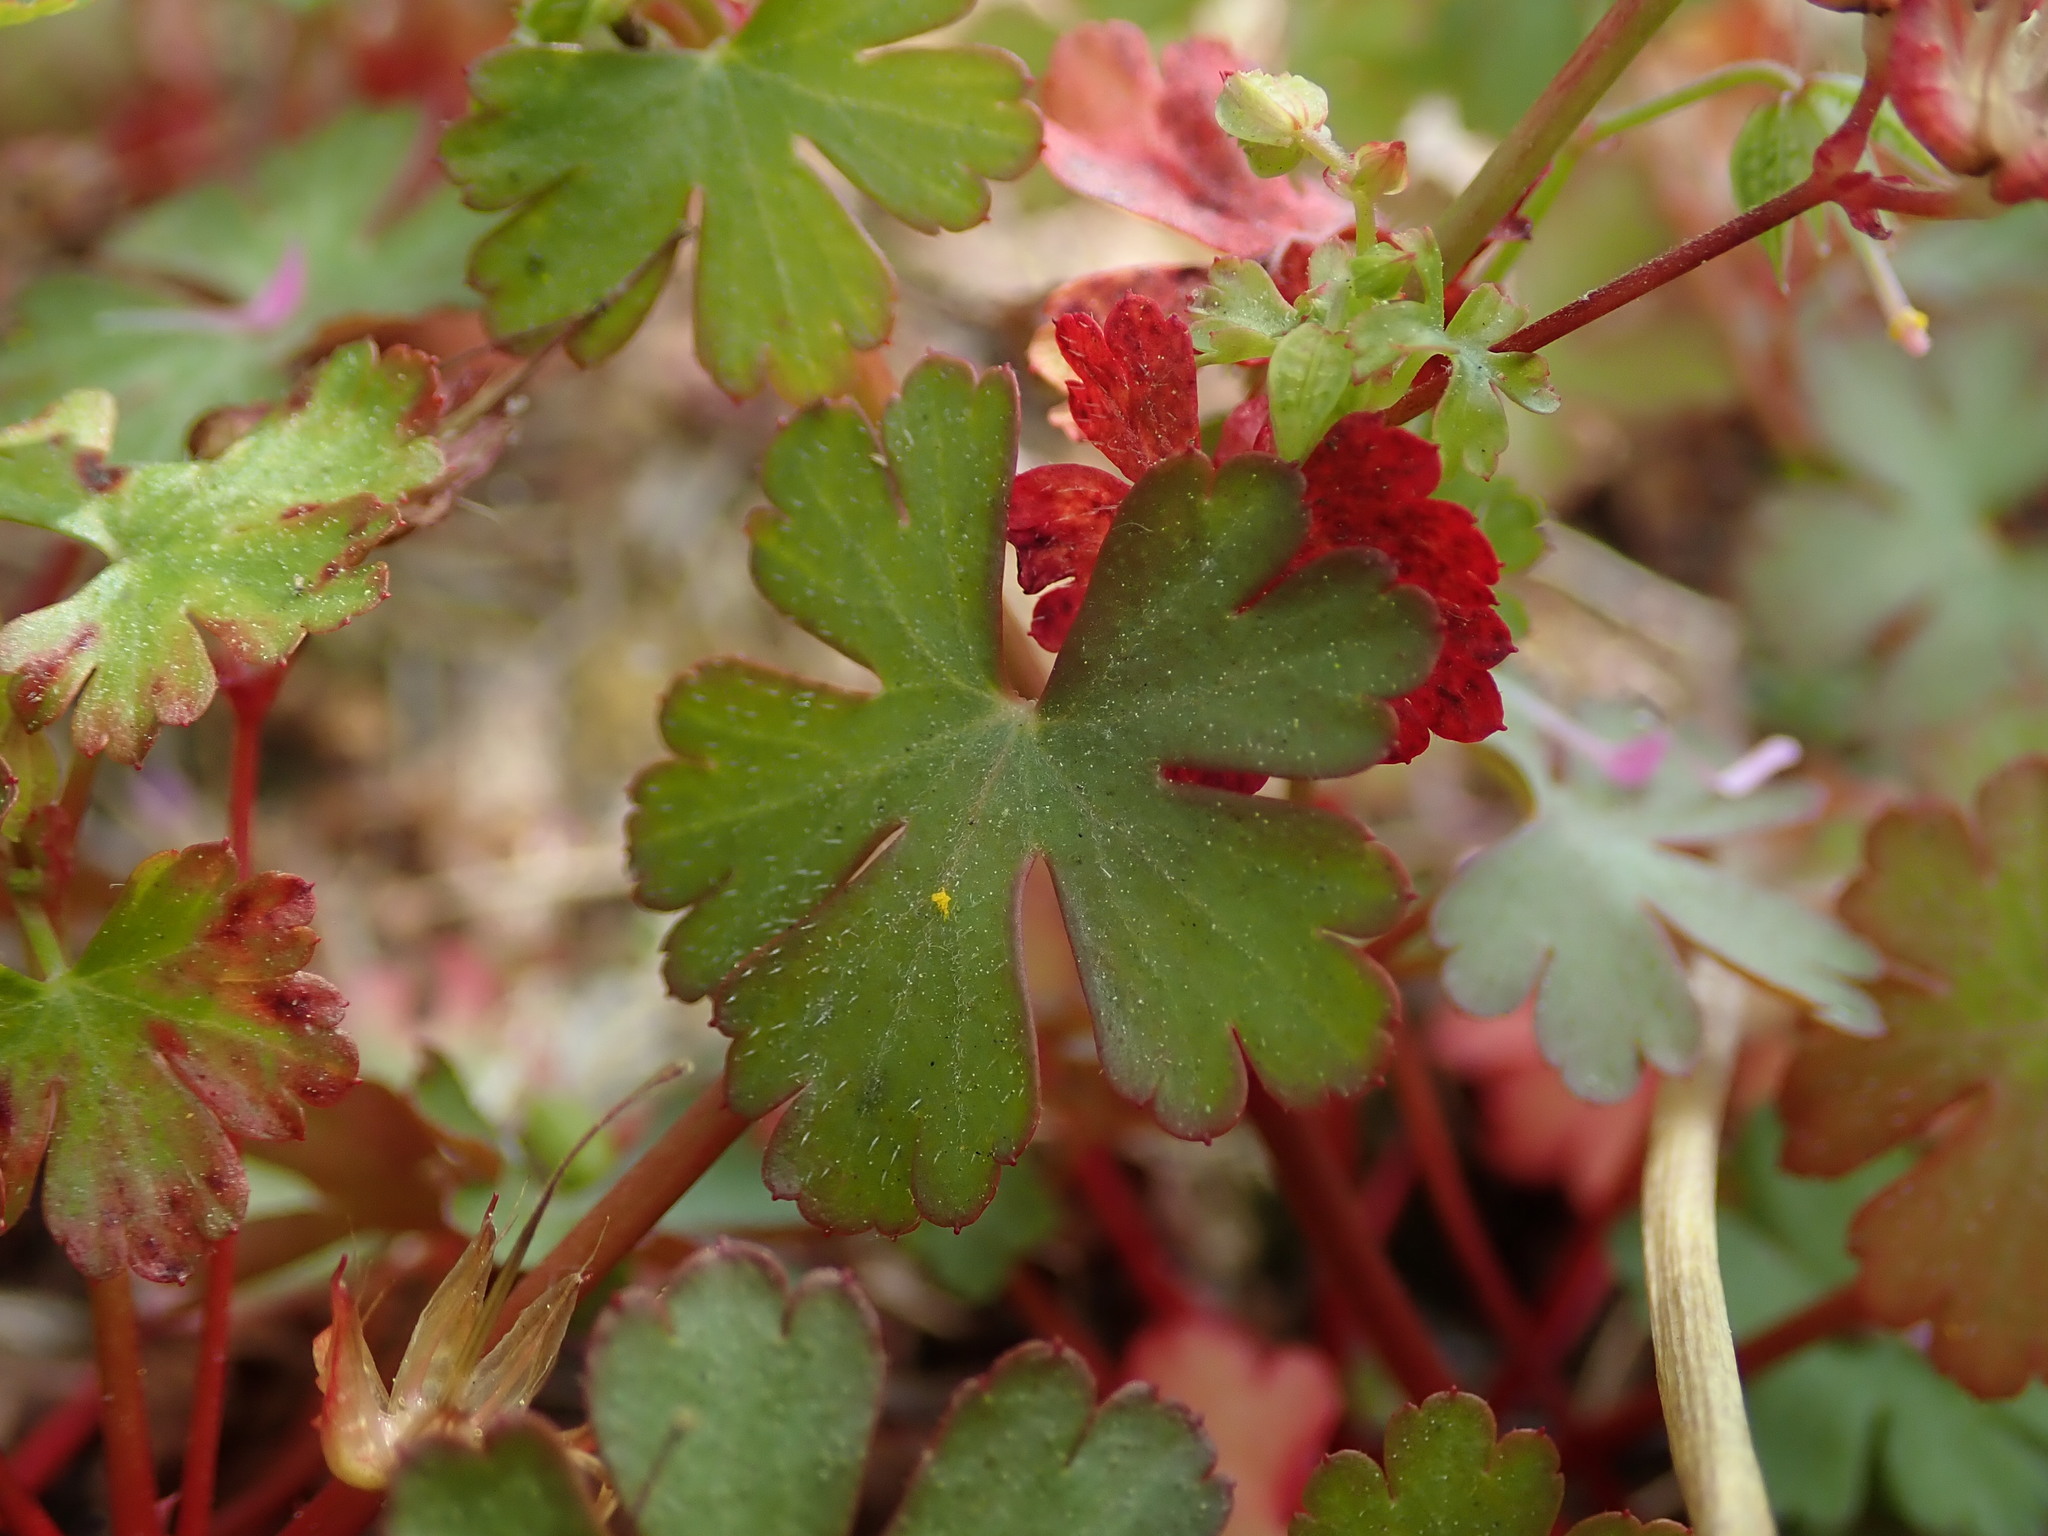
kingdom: Plantae
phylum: Tracheophyta
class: Magnoliopsida
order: Geraniales
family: Geraniaceae
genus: Geranium
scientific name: Geranium lucidum
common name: Shining crane's-bill
